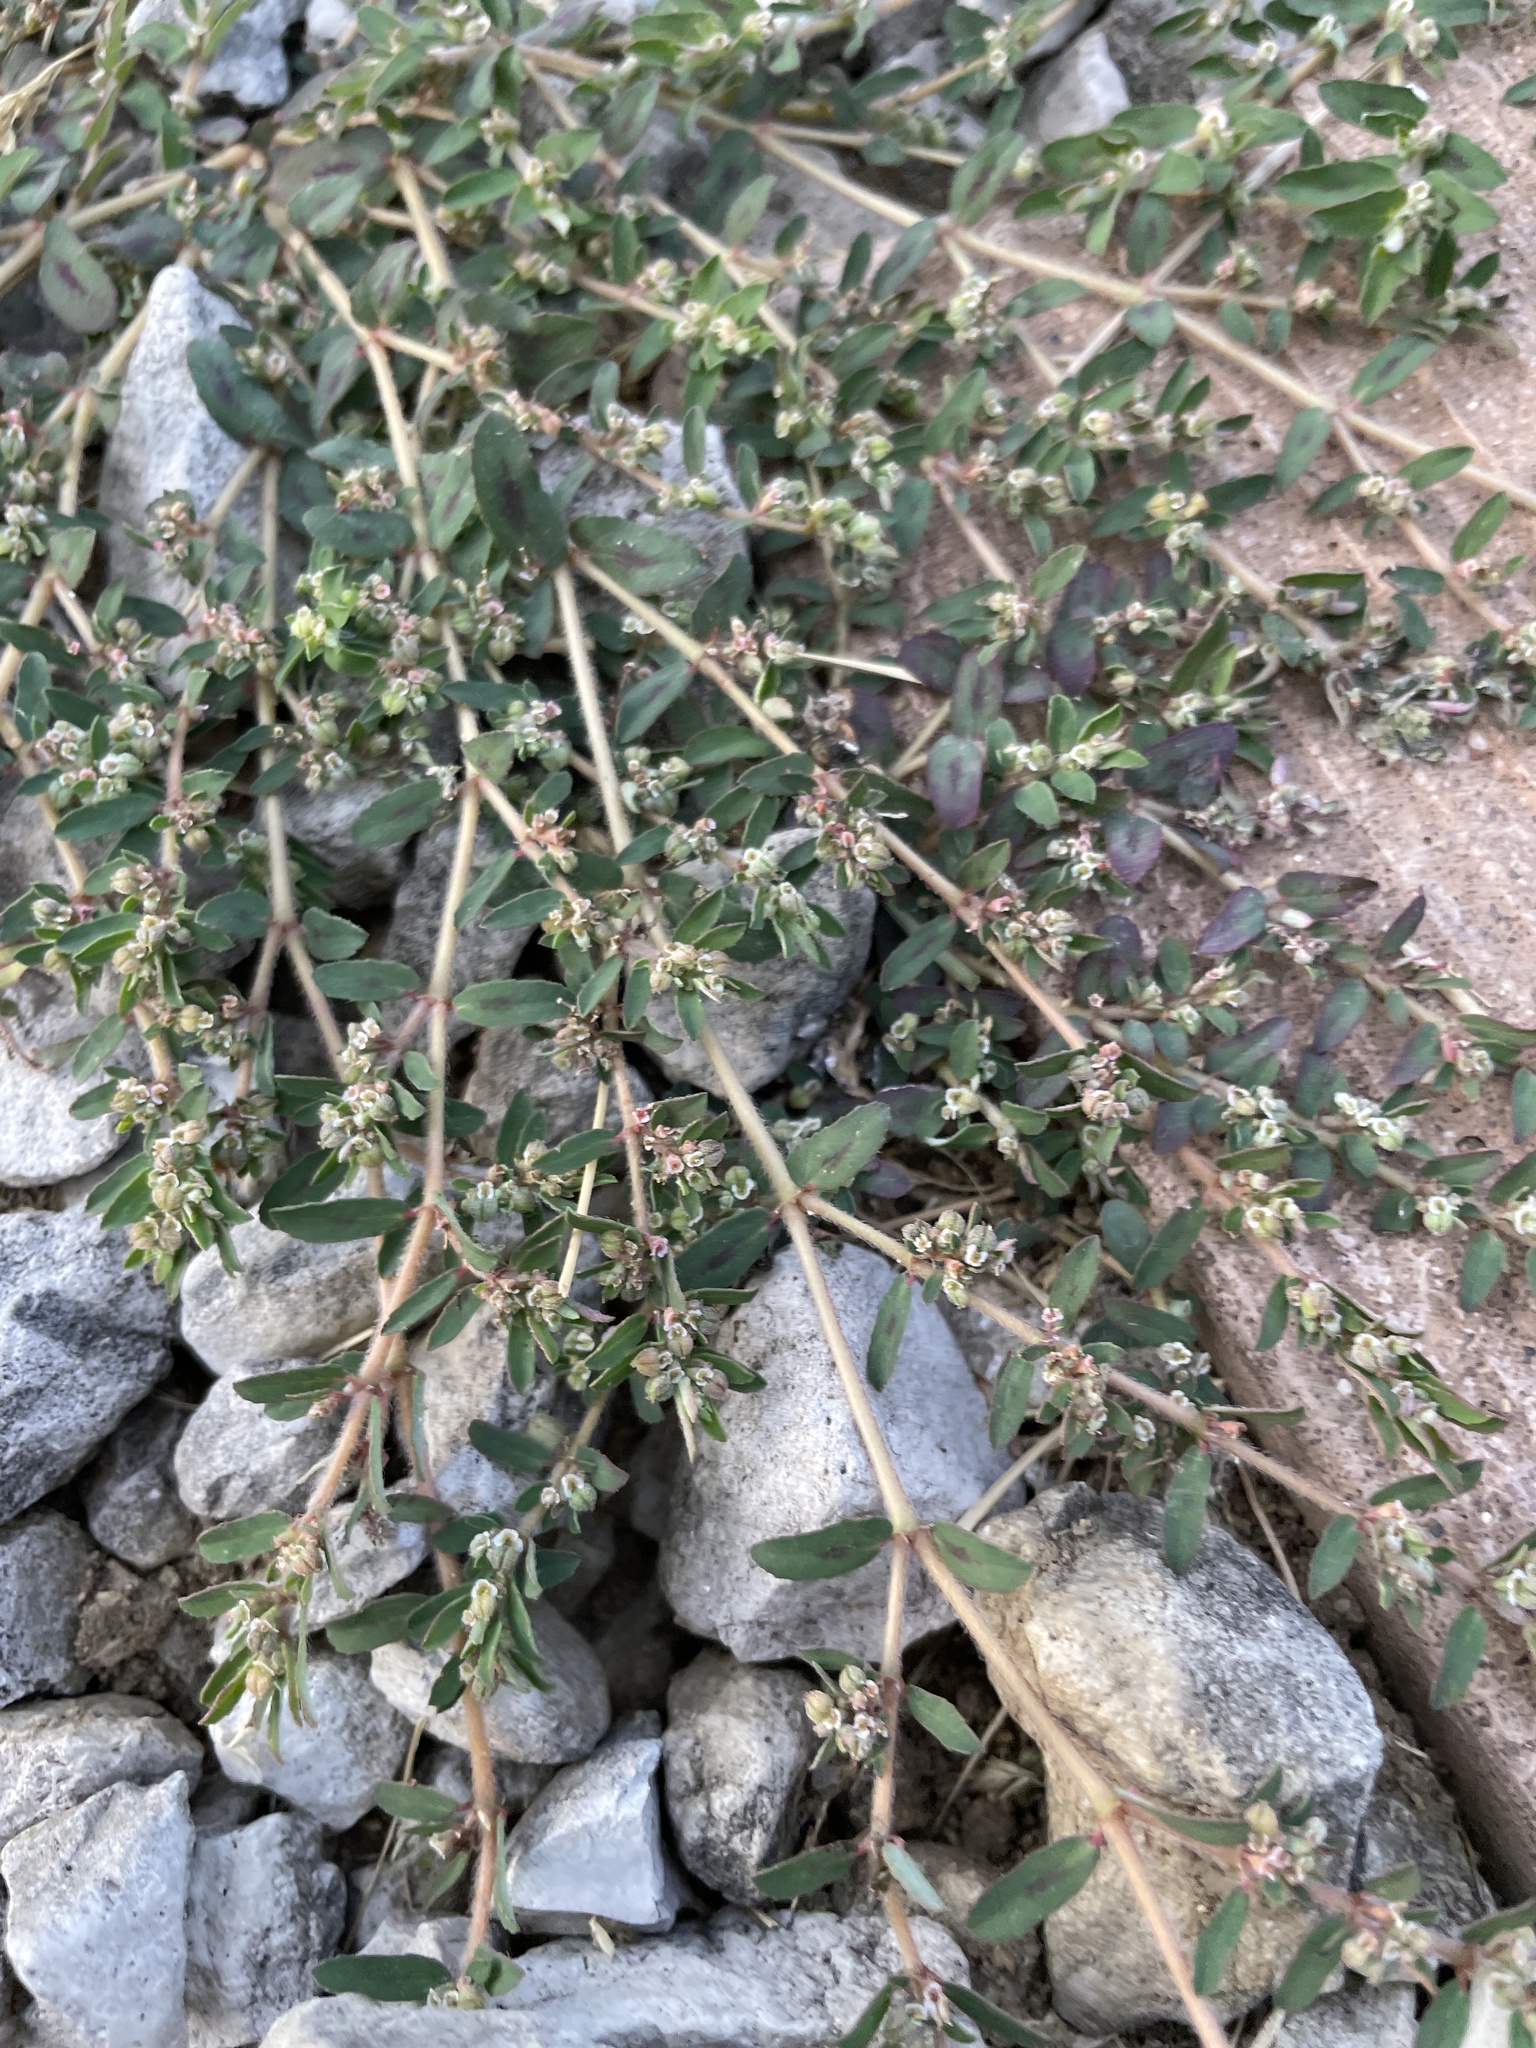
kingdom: Plantae
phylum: Tracheophyta
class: Magnoliopsida
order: Malpighiales
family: Euphorbiaceae
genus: Euphorbia
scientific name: Euphorbia maculata
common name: Spotted spurge
